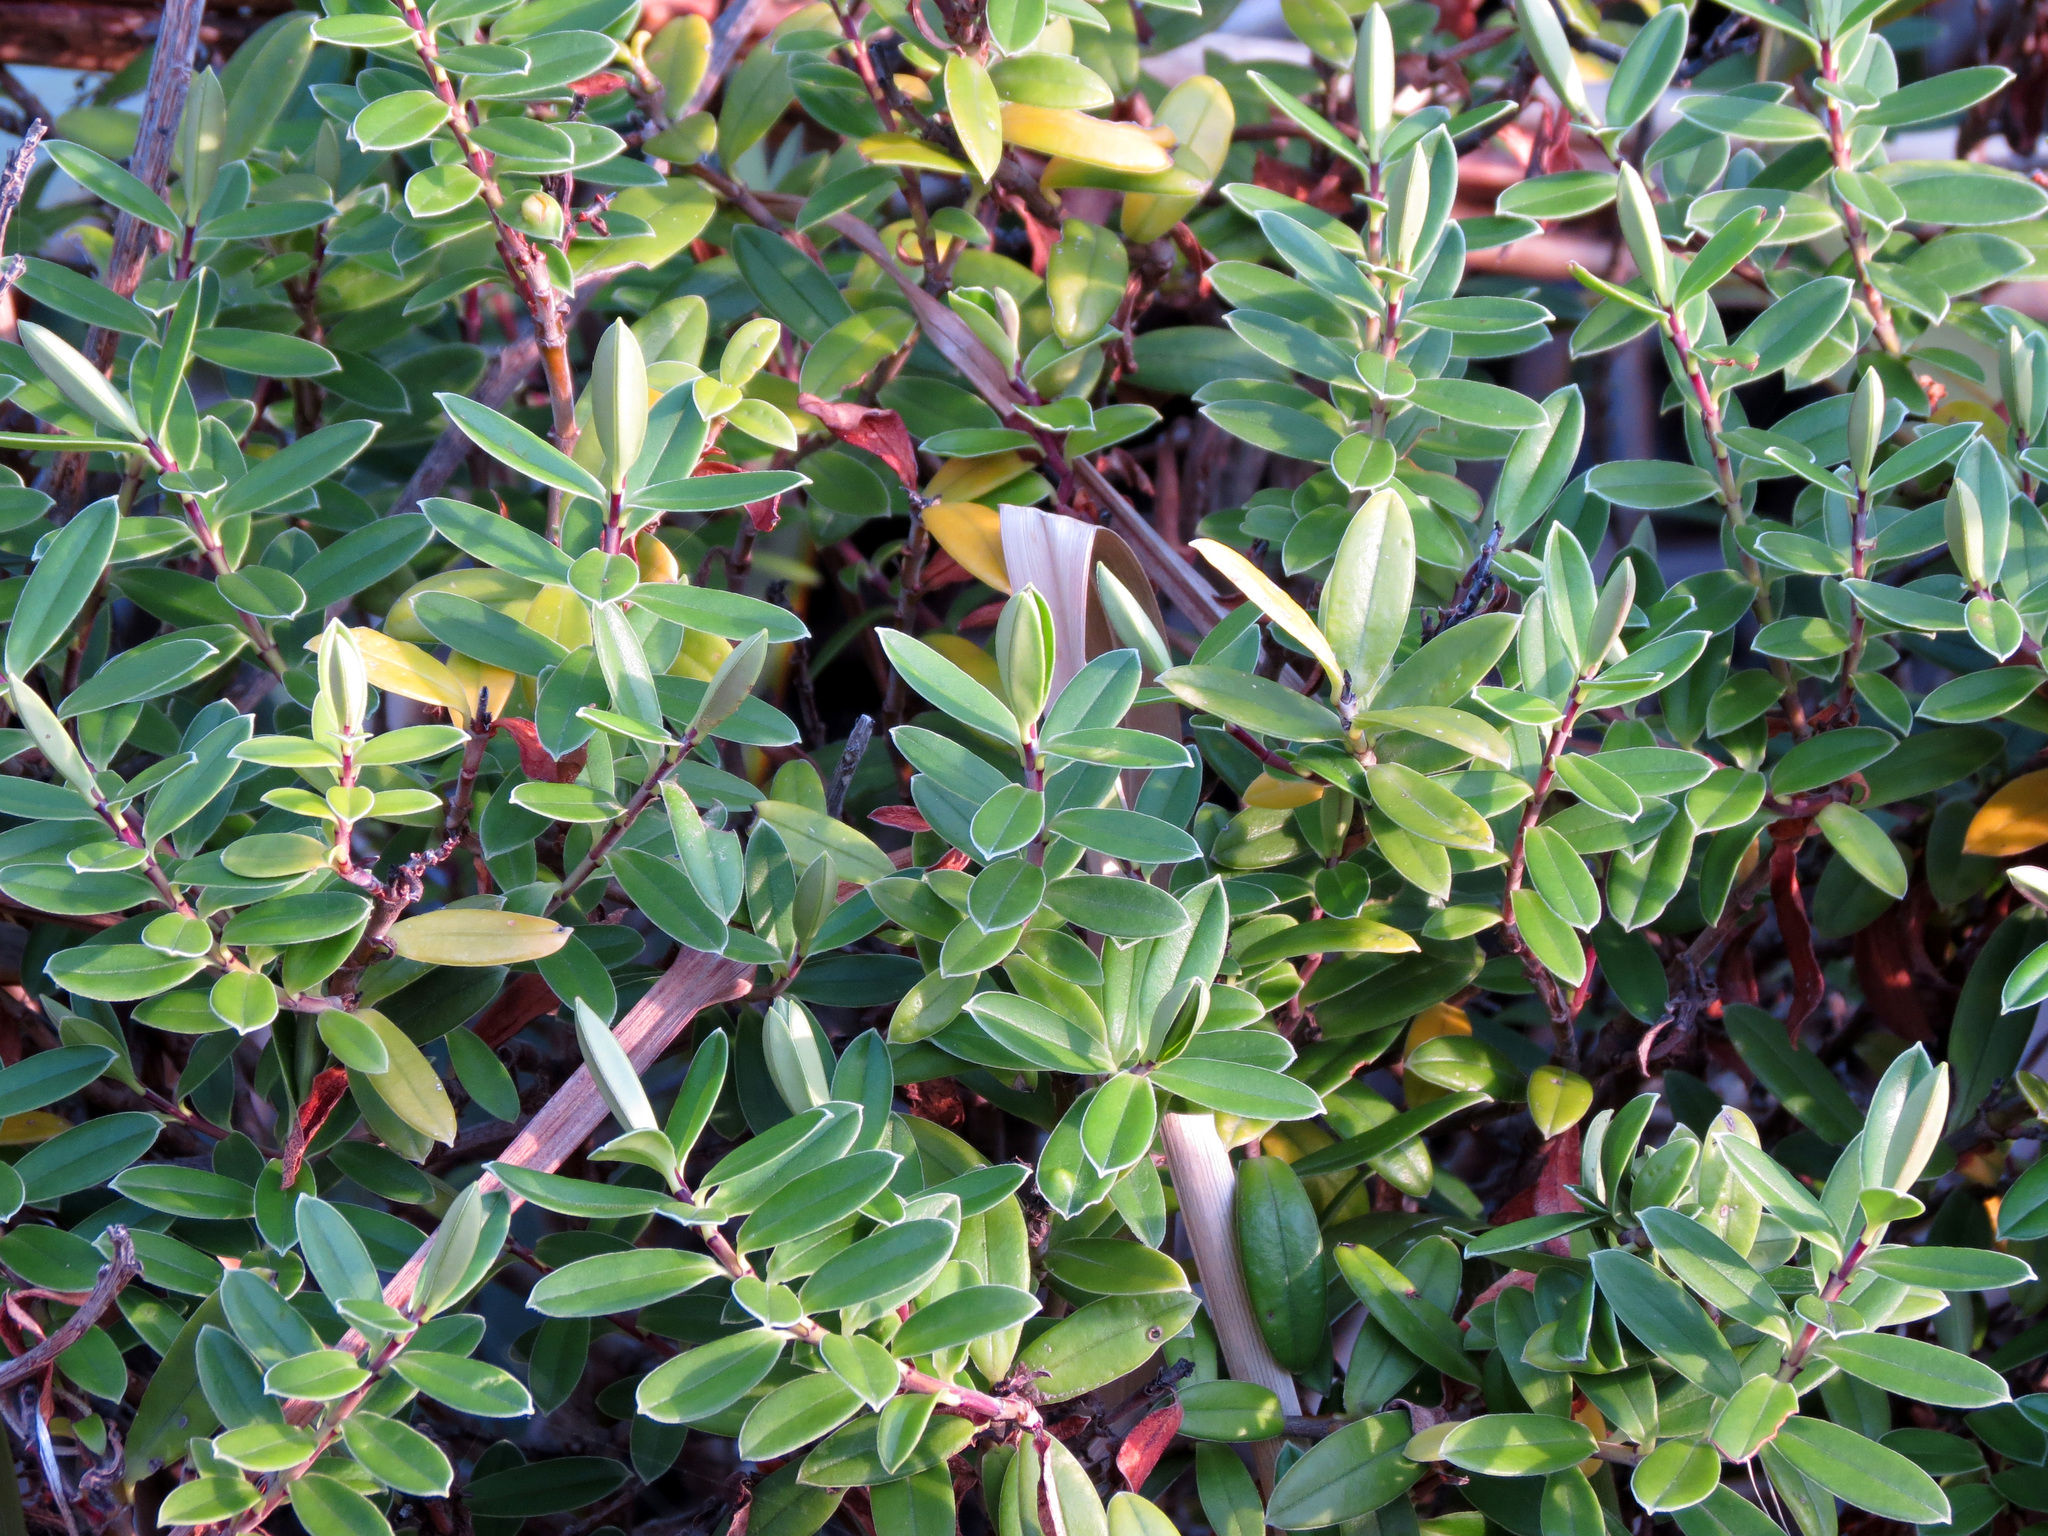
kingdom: Plantae
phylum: Tracheophyta
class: Magnoliopsida
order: Lamiales
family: Plantaginaceae
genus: Veronica
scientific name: Veronica elliptica
